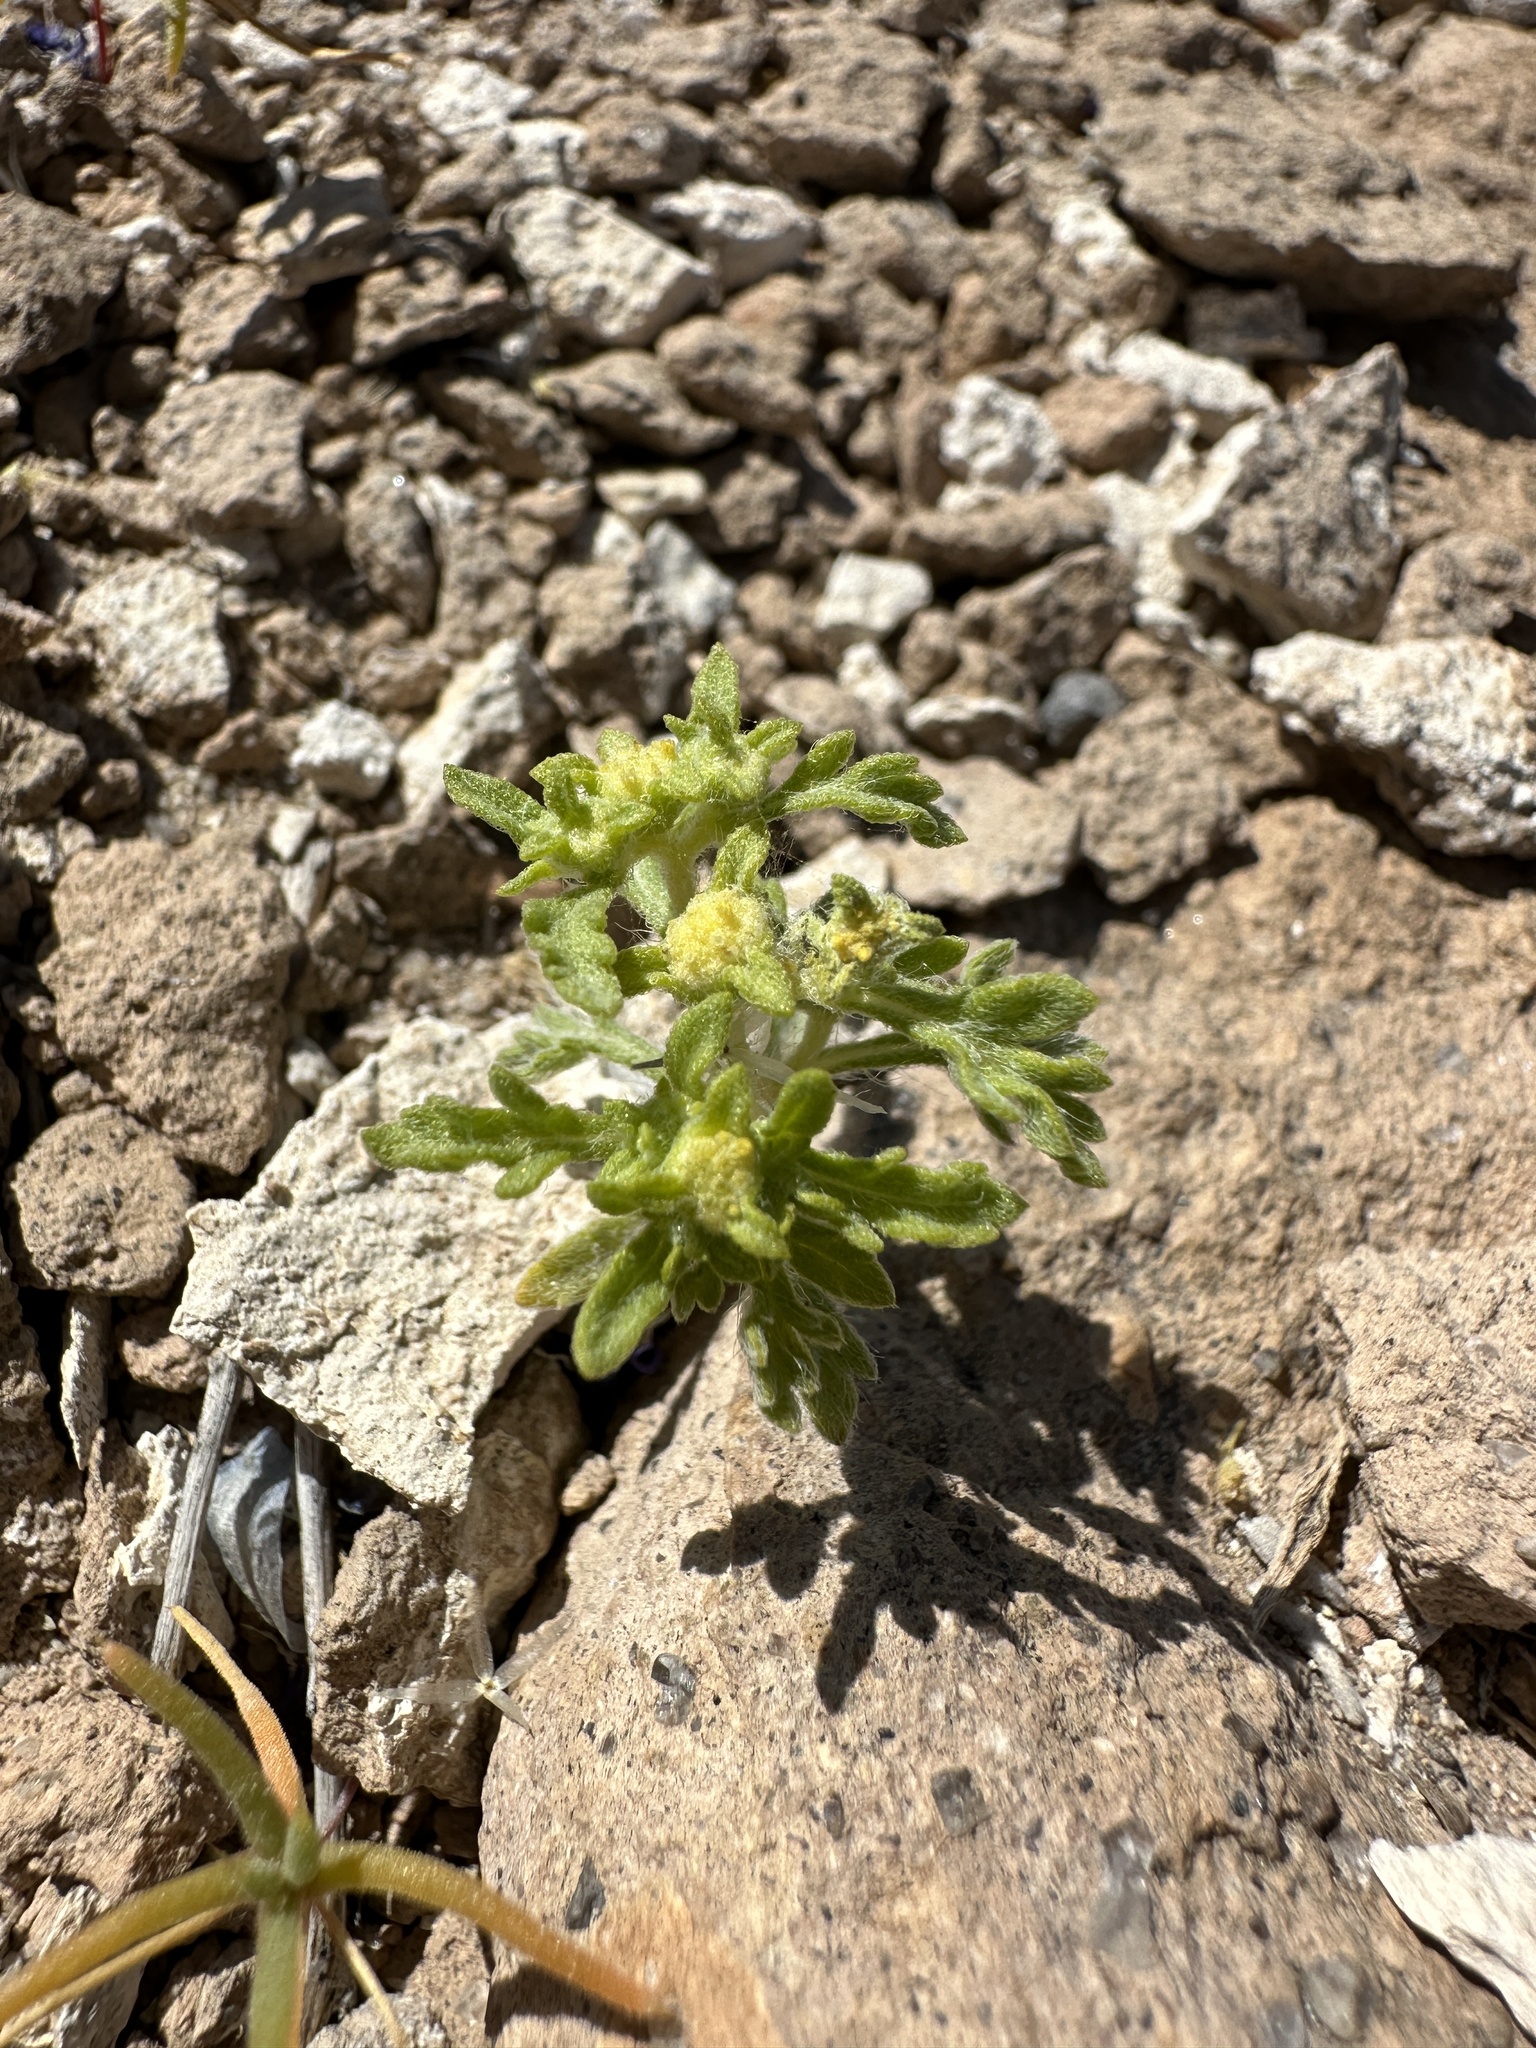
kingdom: Plantae
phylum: Tracheophyta
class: Magnoliopsida
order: Asterales
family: Asteraceae
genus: Euphrosyne
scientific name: Euphrosyne nevadensis
